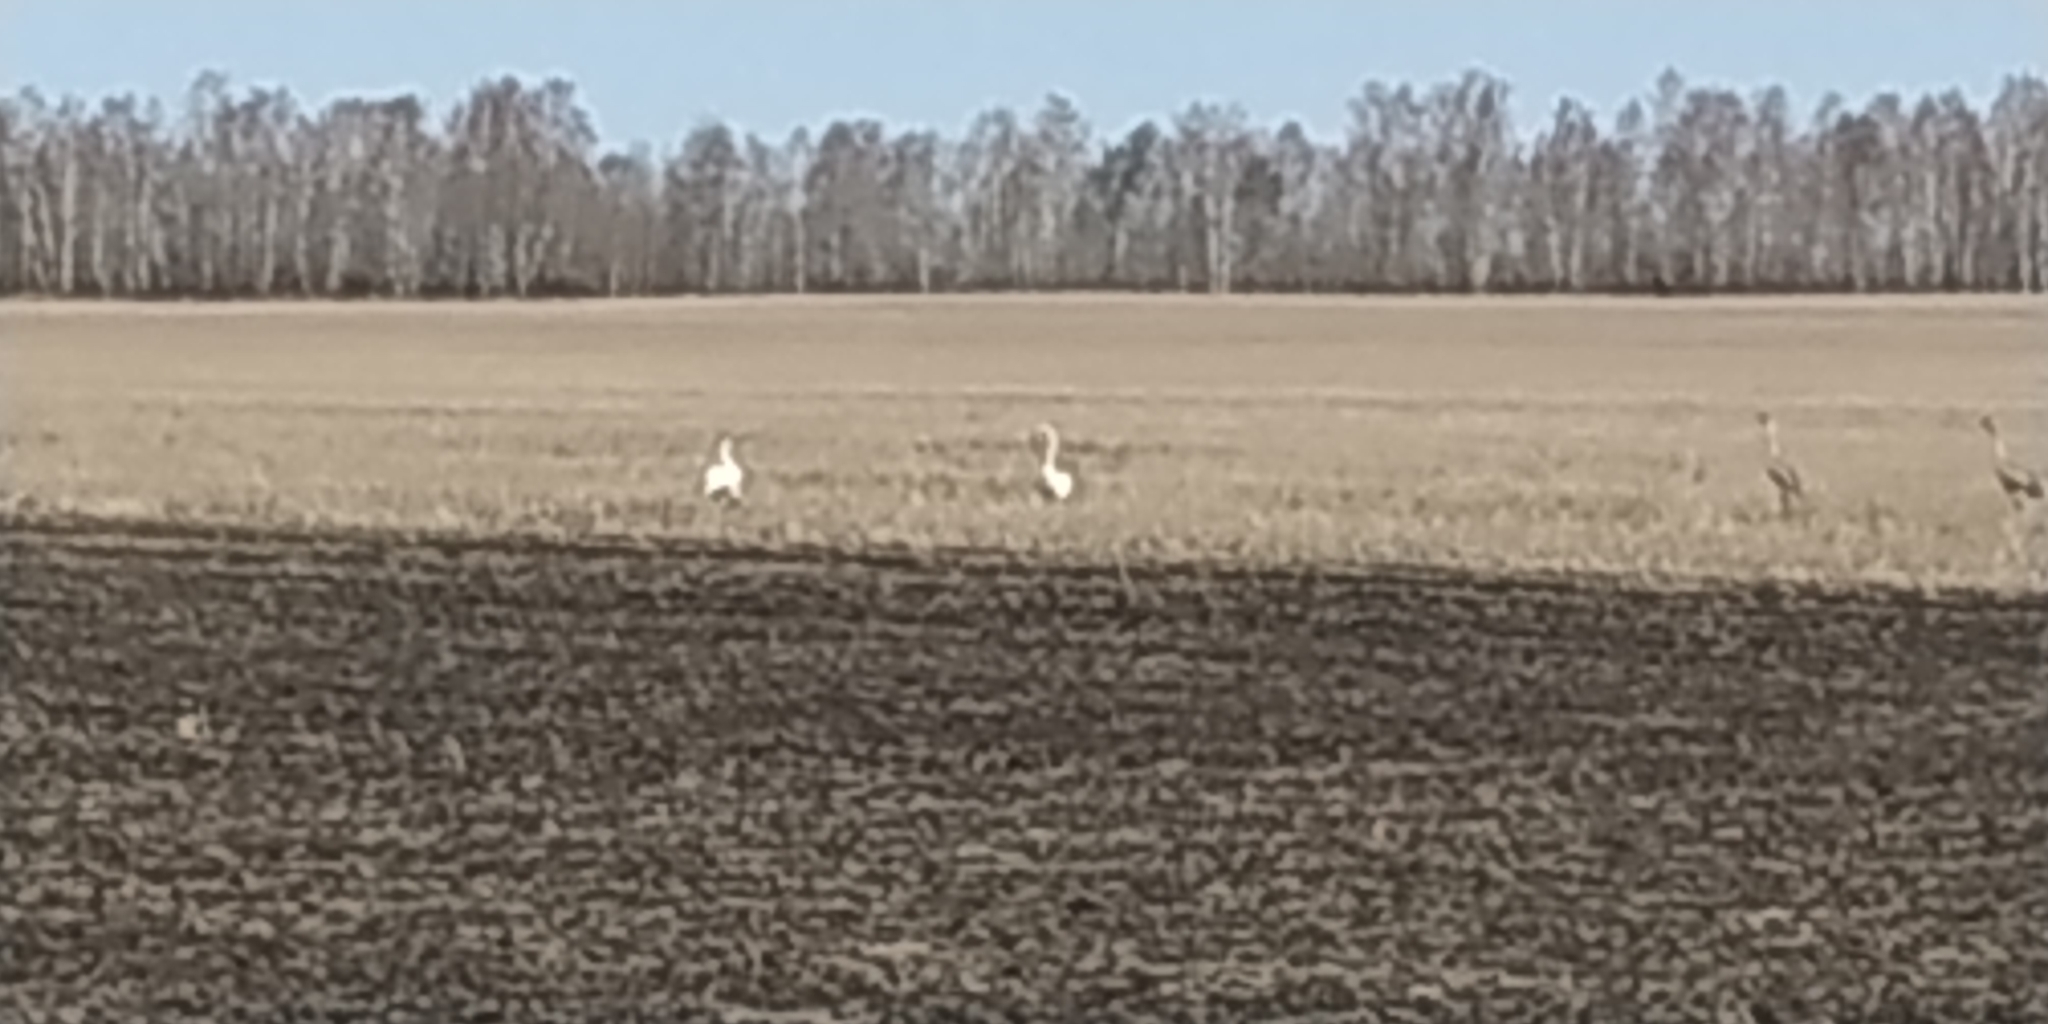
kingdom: Animalia
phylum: Chordata
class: Aves
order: Anseriformes
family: Anatidae
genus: Cygnus
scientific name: Cygnus cygnus
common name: Whooper swan
